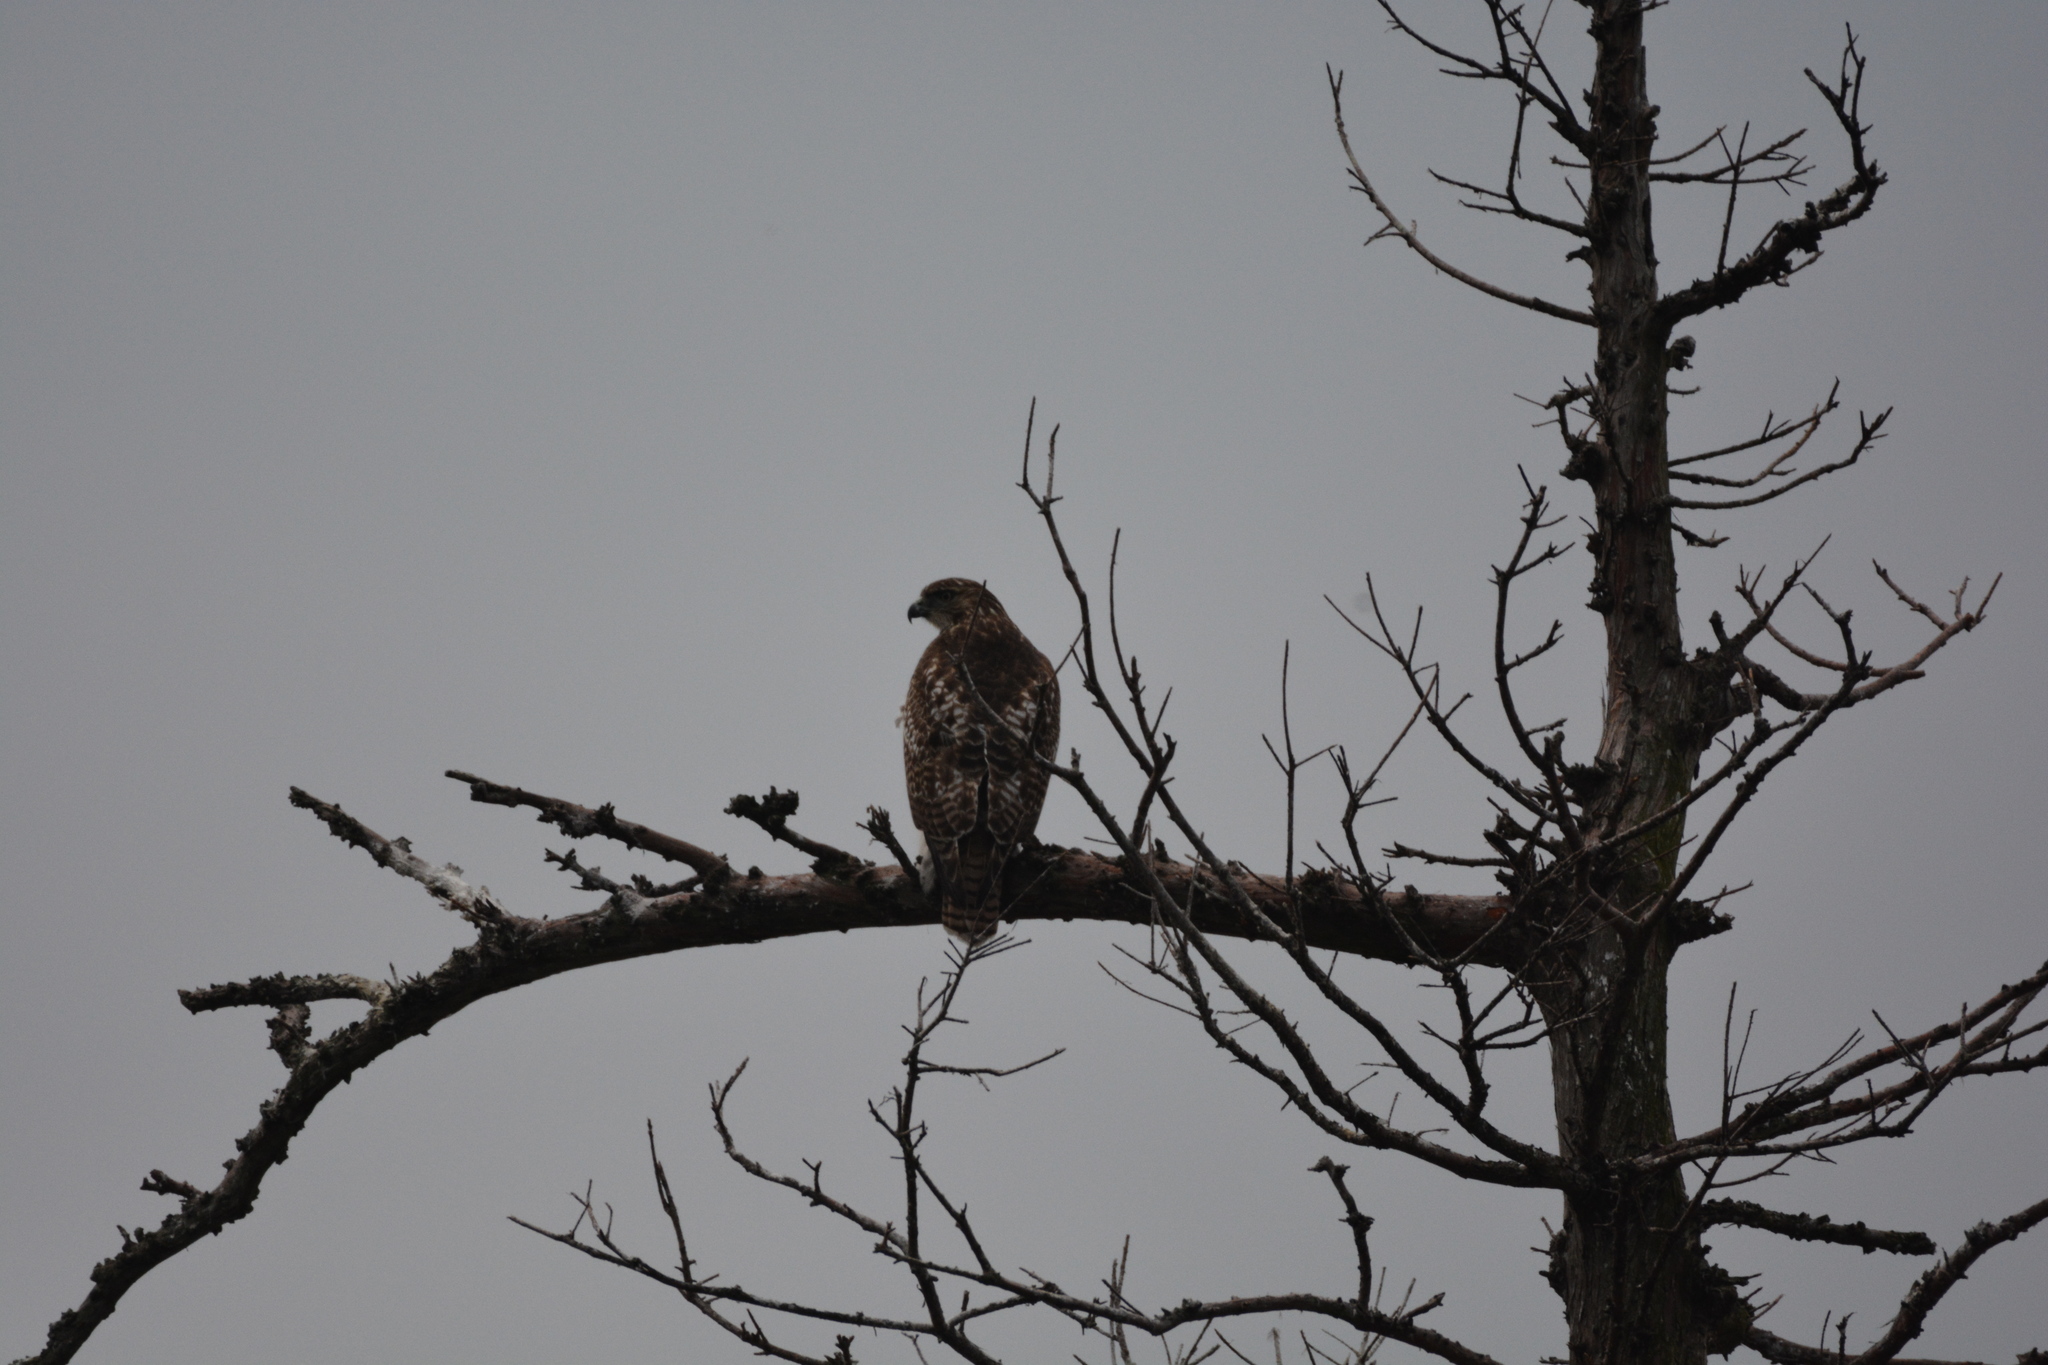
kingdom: Animalia
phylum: Chordata
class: Aves
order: Accipitriformes
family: Accipitridae
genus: Buteo
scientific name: Buteo jamaicensis
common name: Red-tailed hawk
